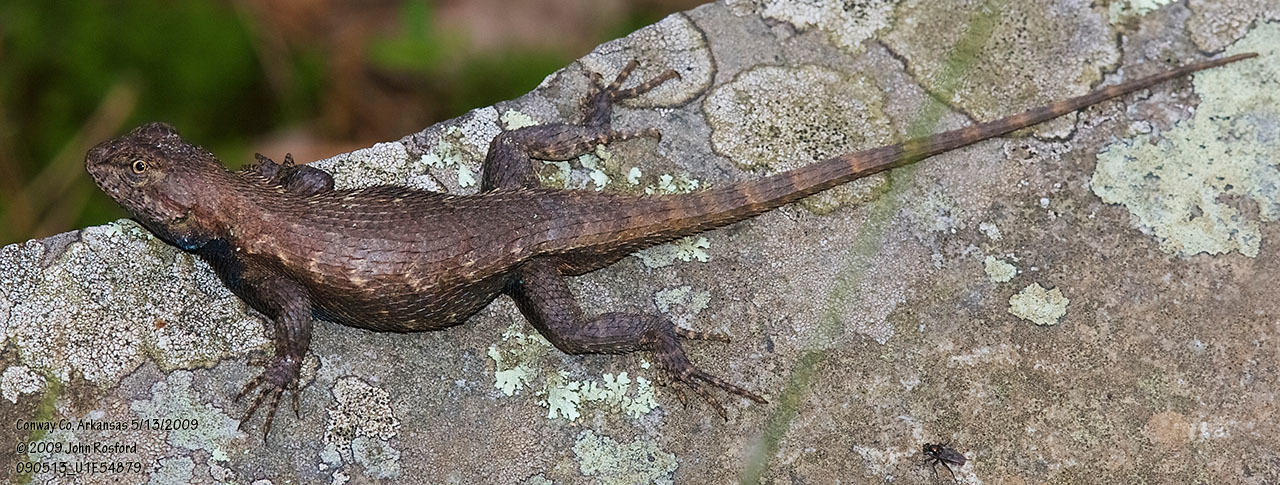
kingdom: Animalia
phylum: Chordata
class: Squamata
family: Phrynosomatidae
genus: Sceloporus
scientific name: Sceloporus consobrinus
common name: Southern prairie lizard
